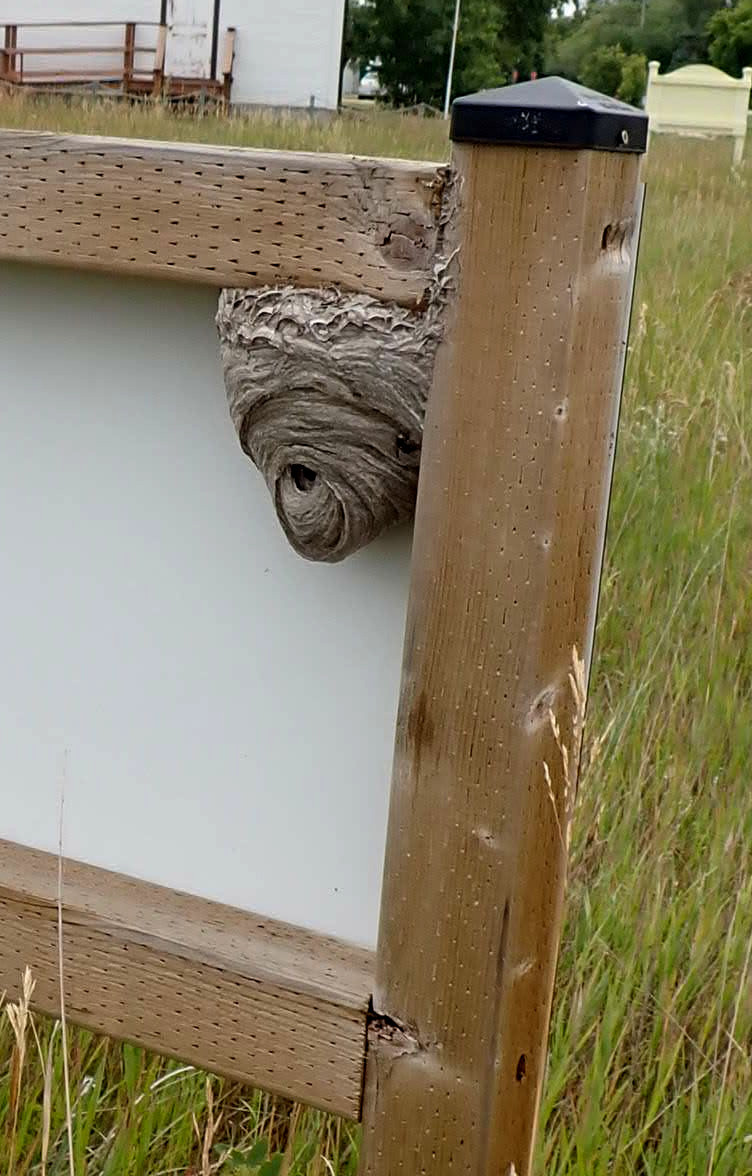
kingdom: Animalia
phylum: Arthropoda
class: Insecta
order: Hymenoptera
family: Vespidae
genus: Dolichovespula
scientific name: Dolichovespula maculata
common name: Bald-faced hornet
